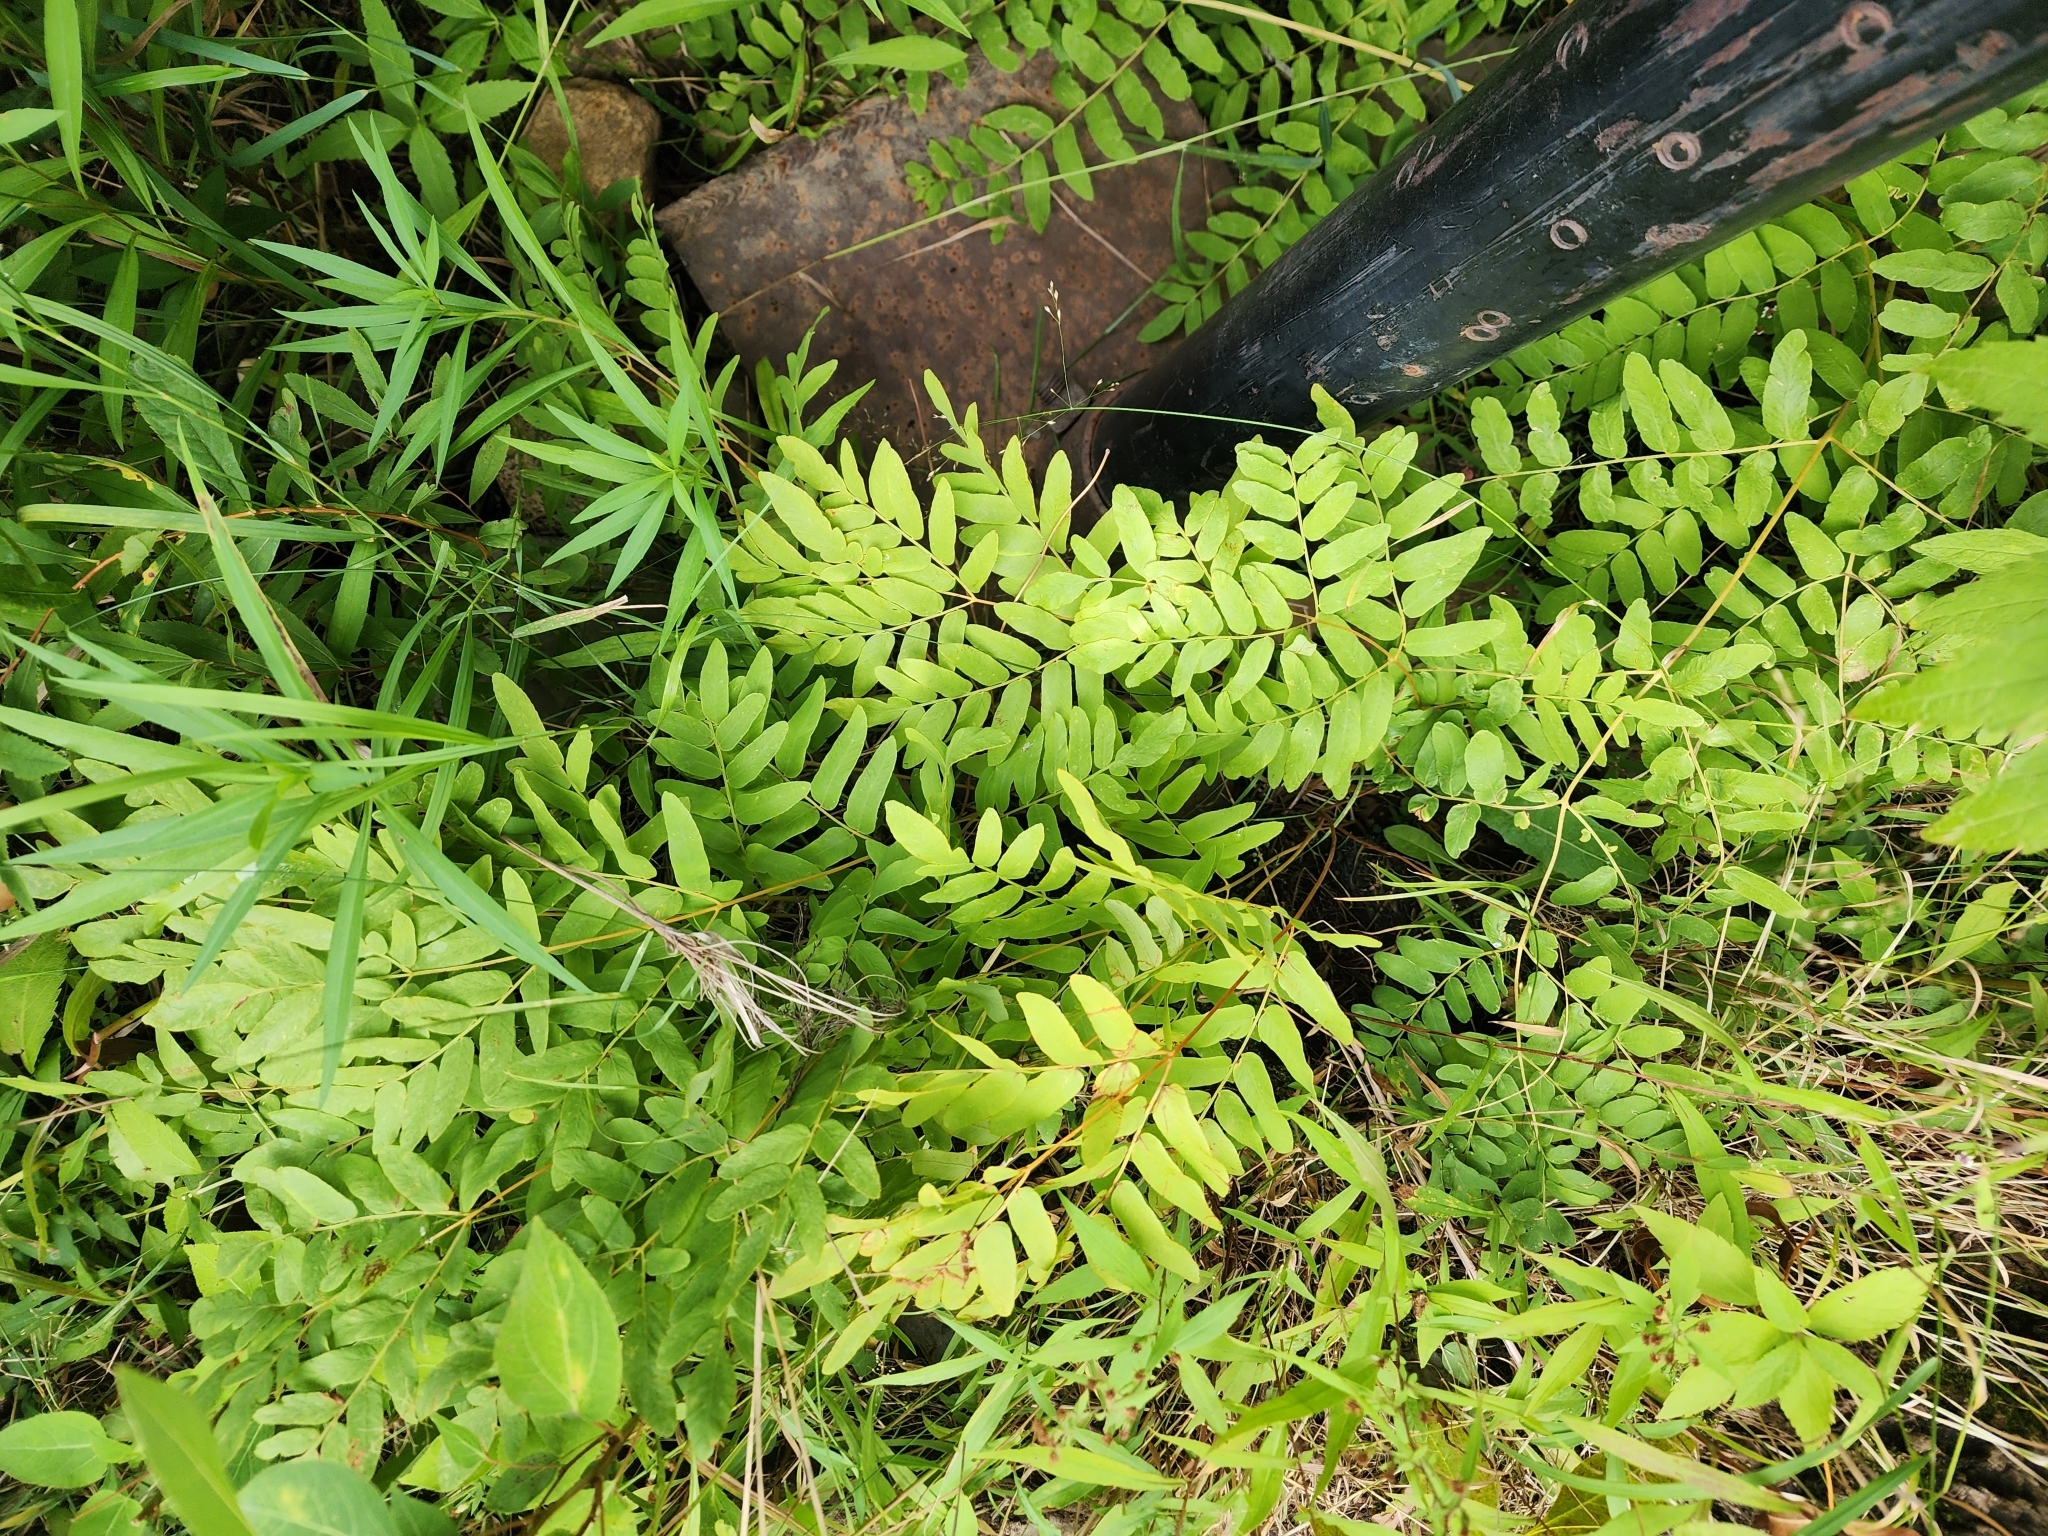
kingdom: Plantae
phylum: Tracheophyta
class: Polypodiopsida
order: Osmundales
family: Osmundaceae
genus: Osmunda
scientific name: Osmunda spectabilis
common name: American royal fern
